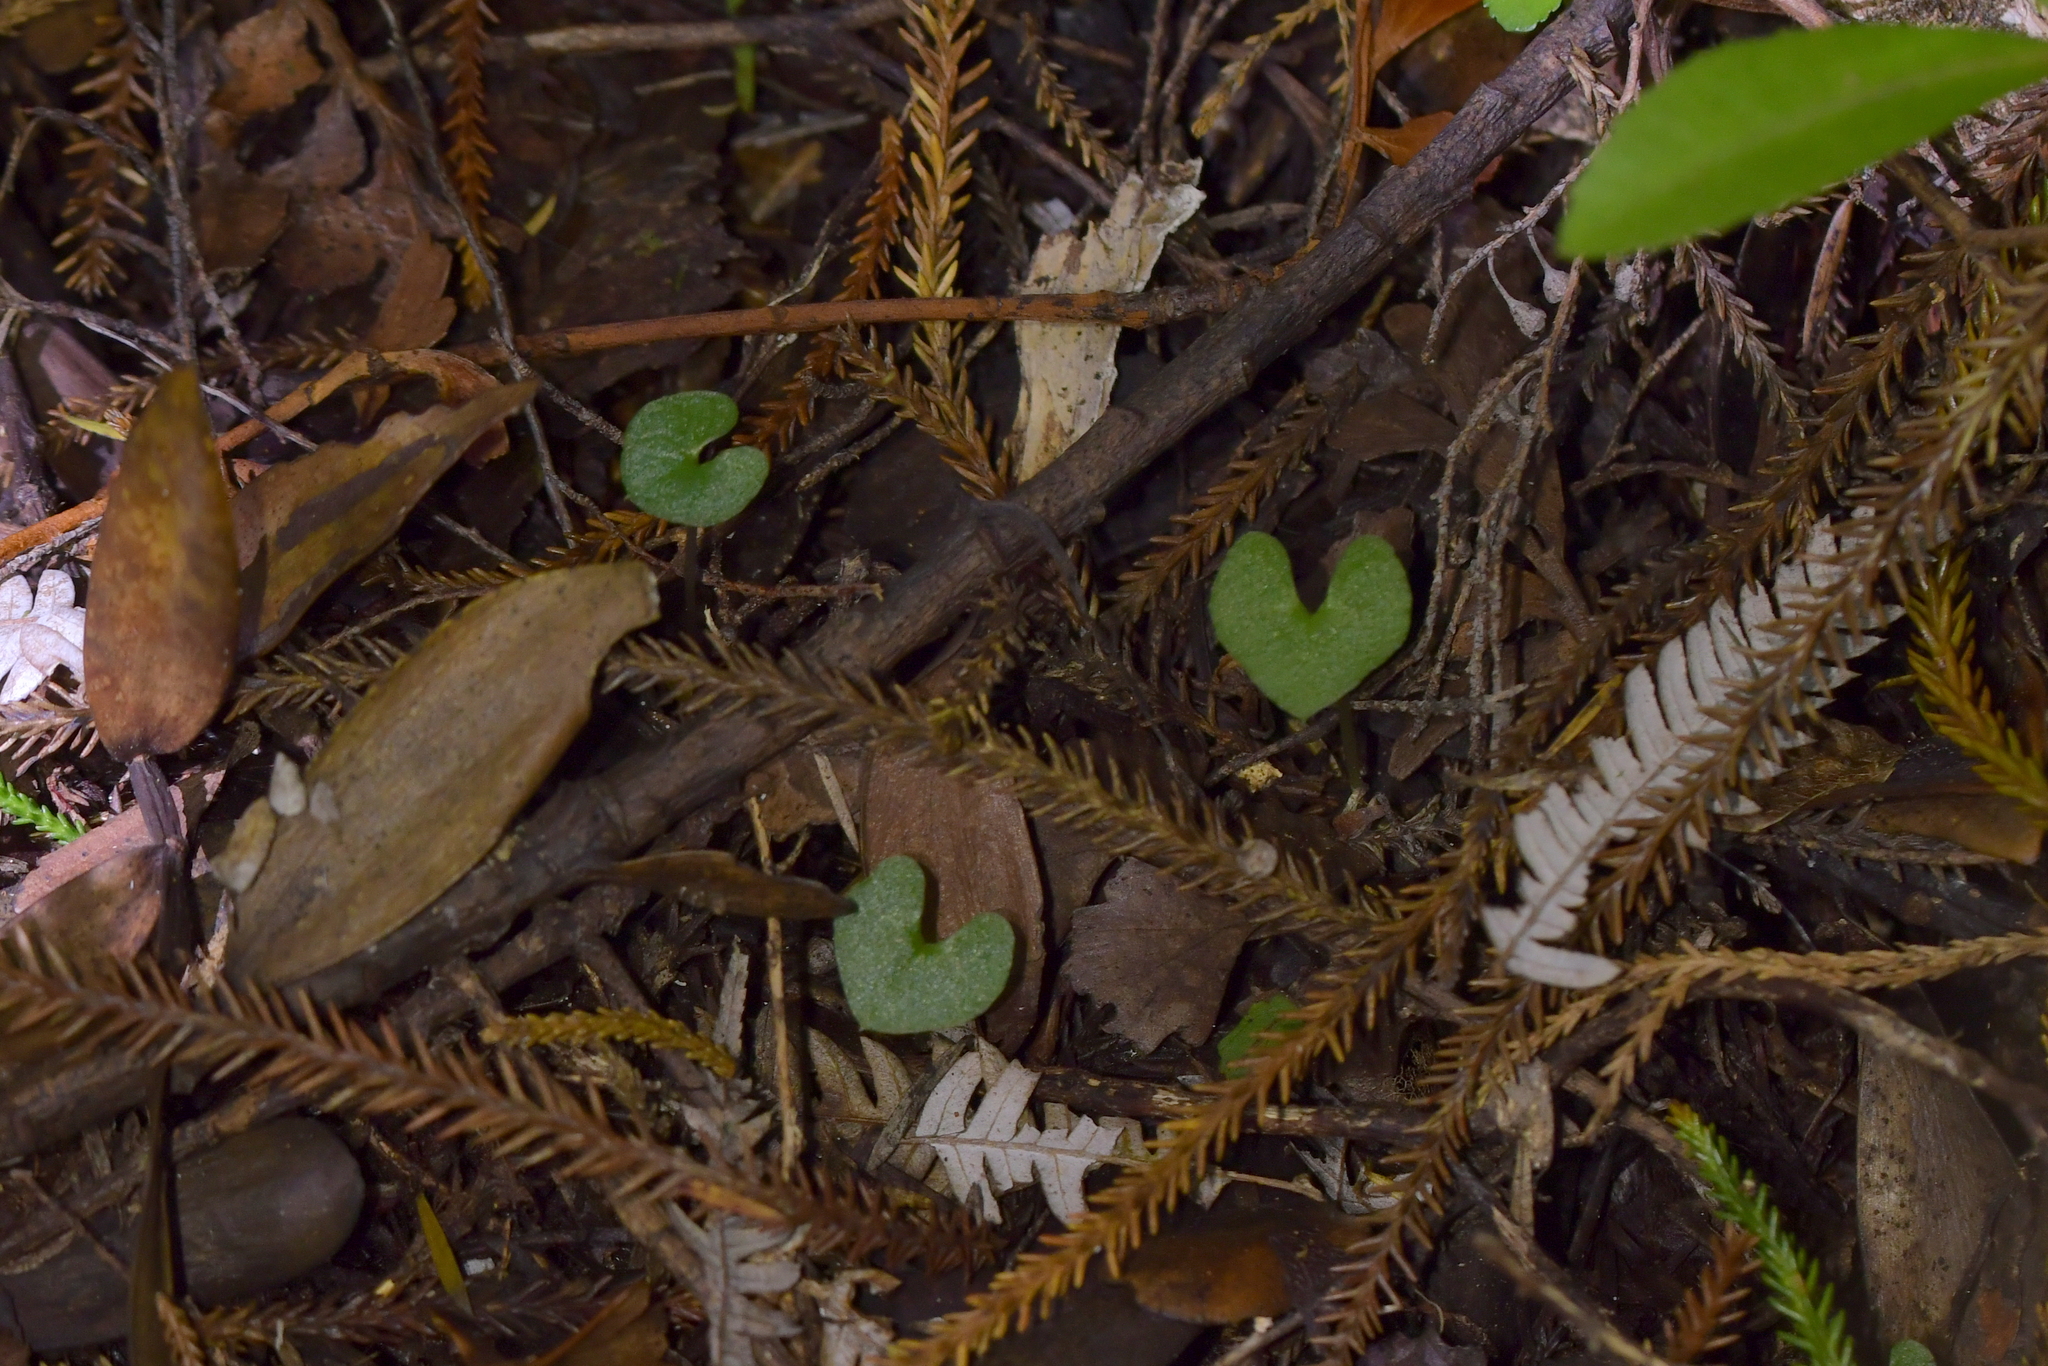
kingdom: Plantae
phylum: Tracheophyta
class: Liliopsida
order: Asparagales
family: Orchidaceae
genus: Acianthus
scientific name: Acianthus sinclairii
